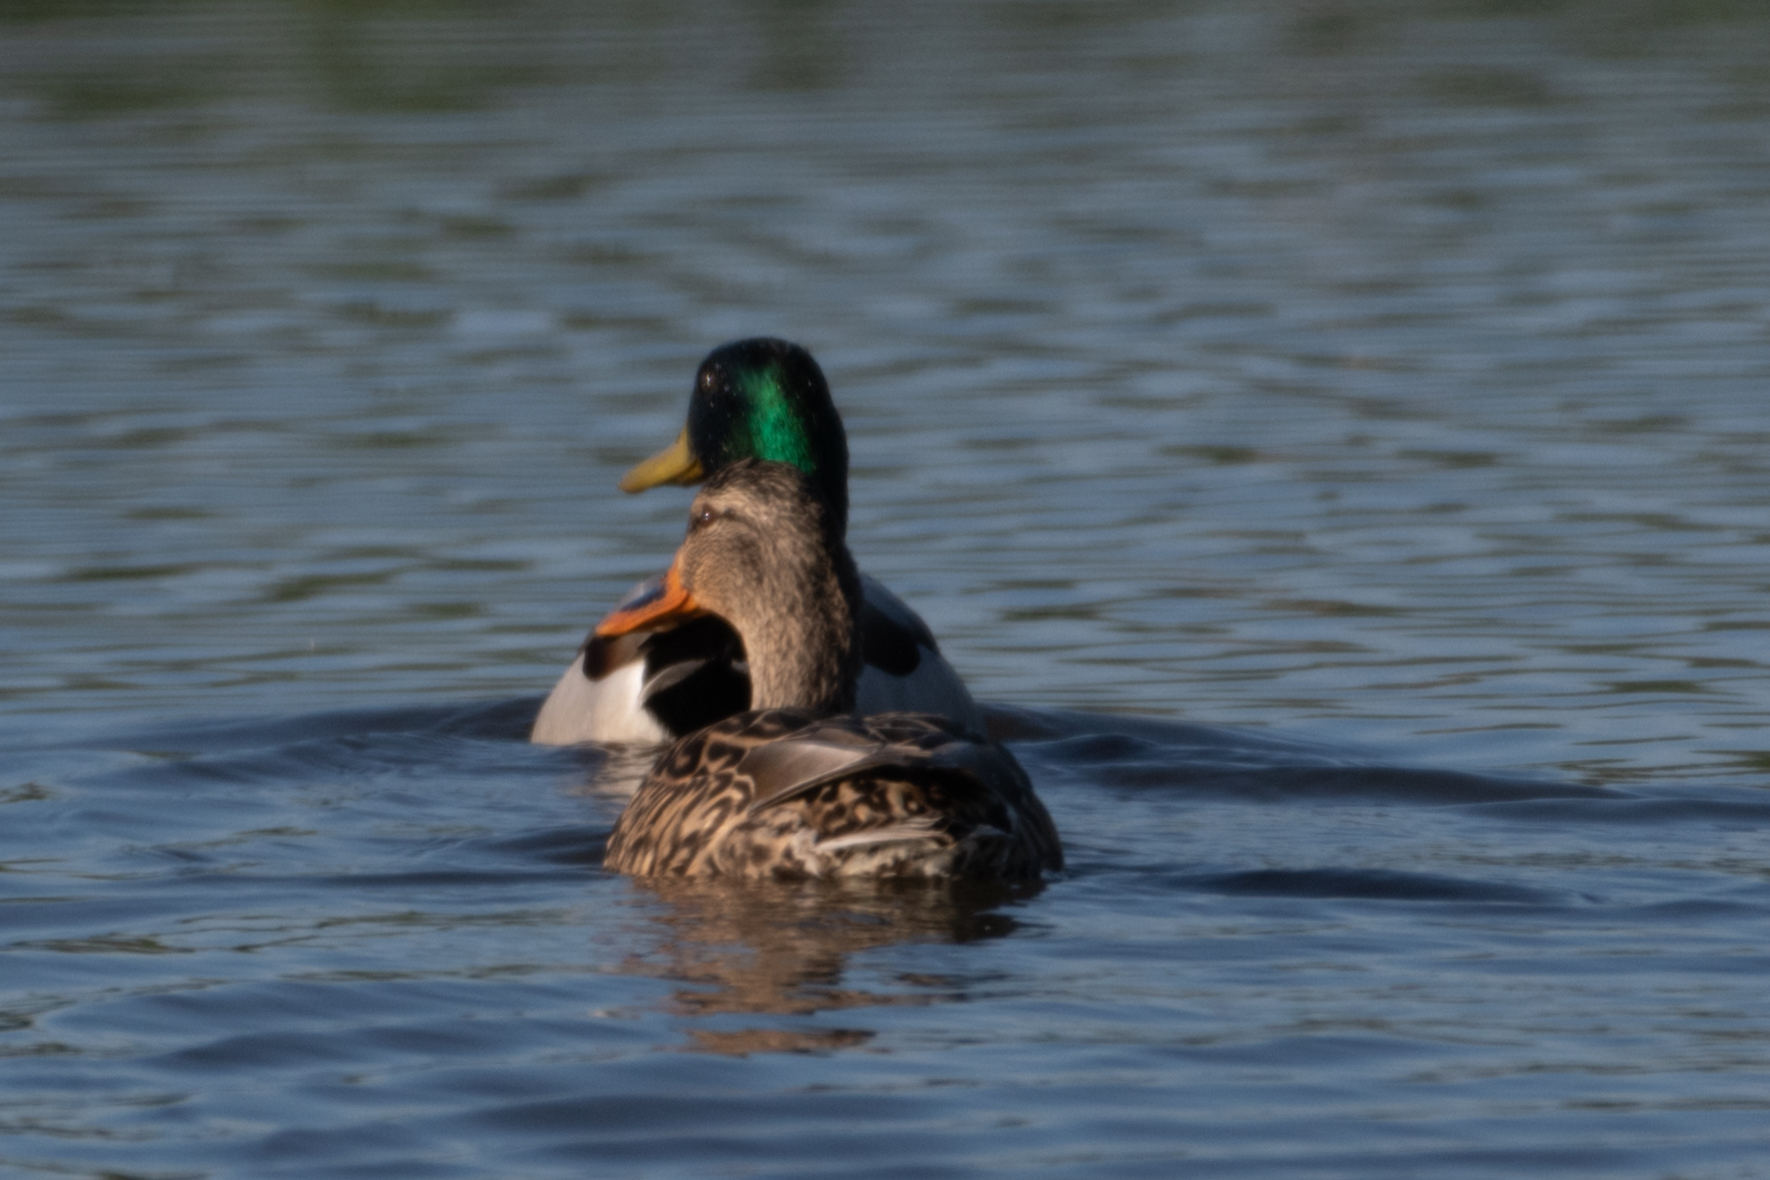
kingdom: Animalia
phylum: Chordata
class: Aves
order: Anseriformes
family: Anatidae
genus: Anas
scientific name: Anas platyrhynchos
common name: Mallard
